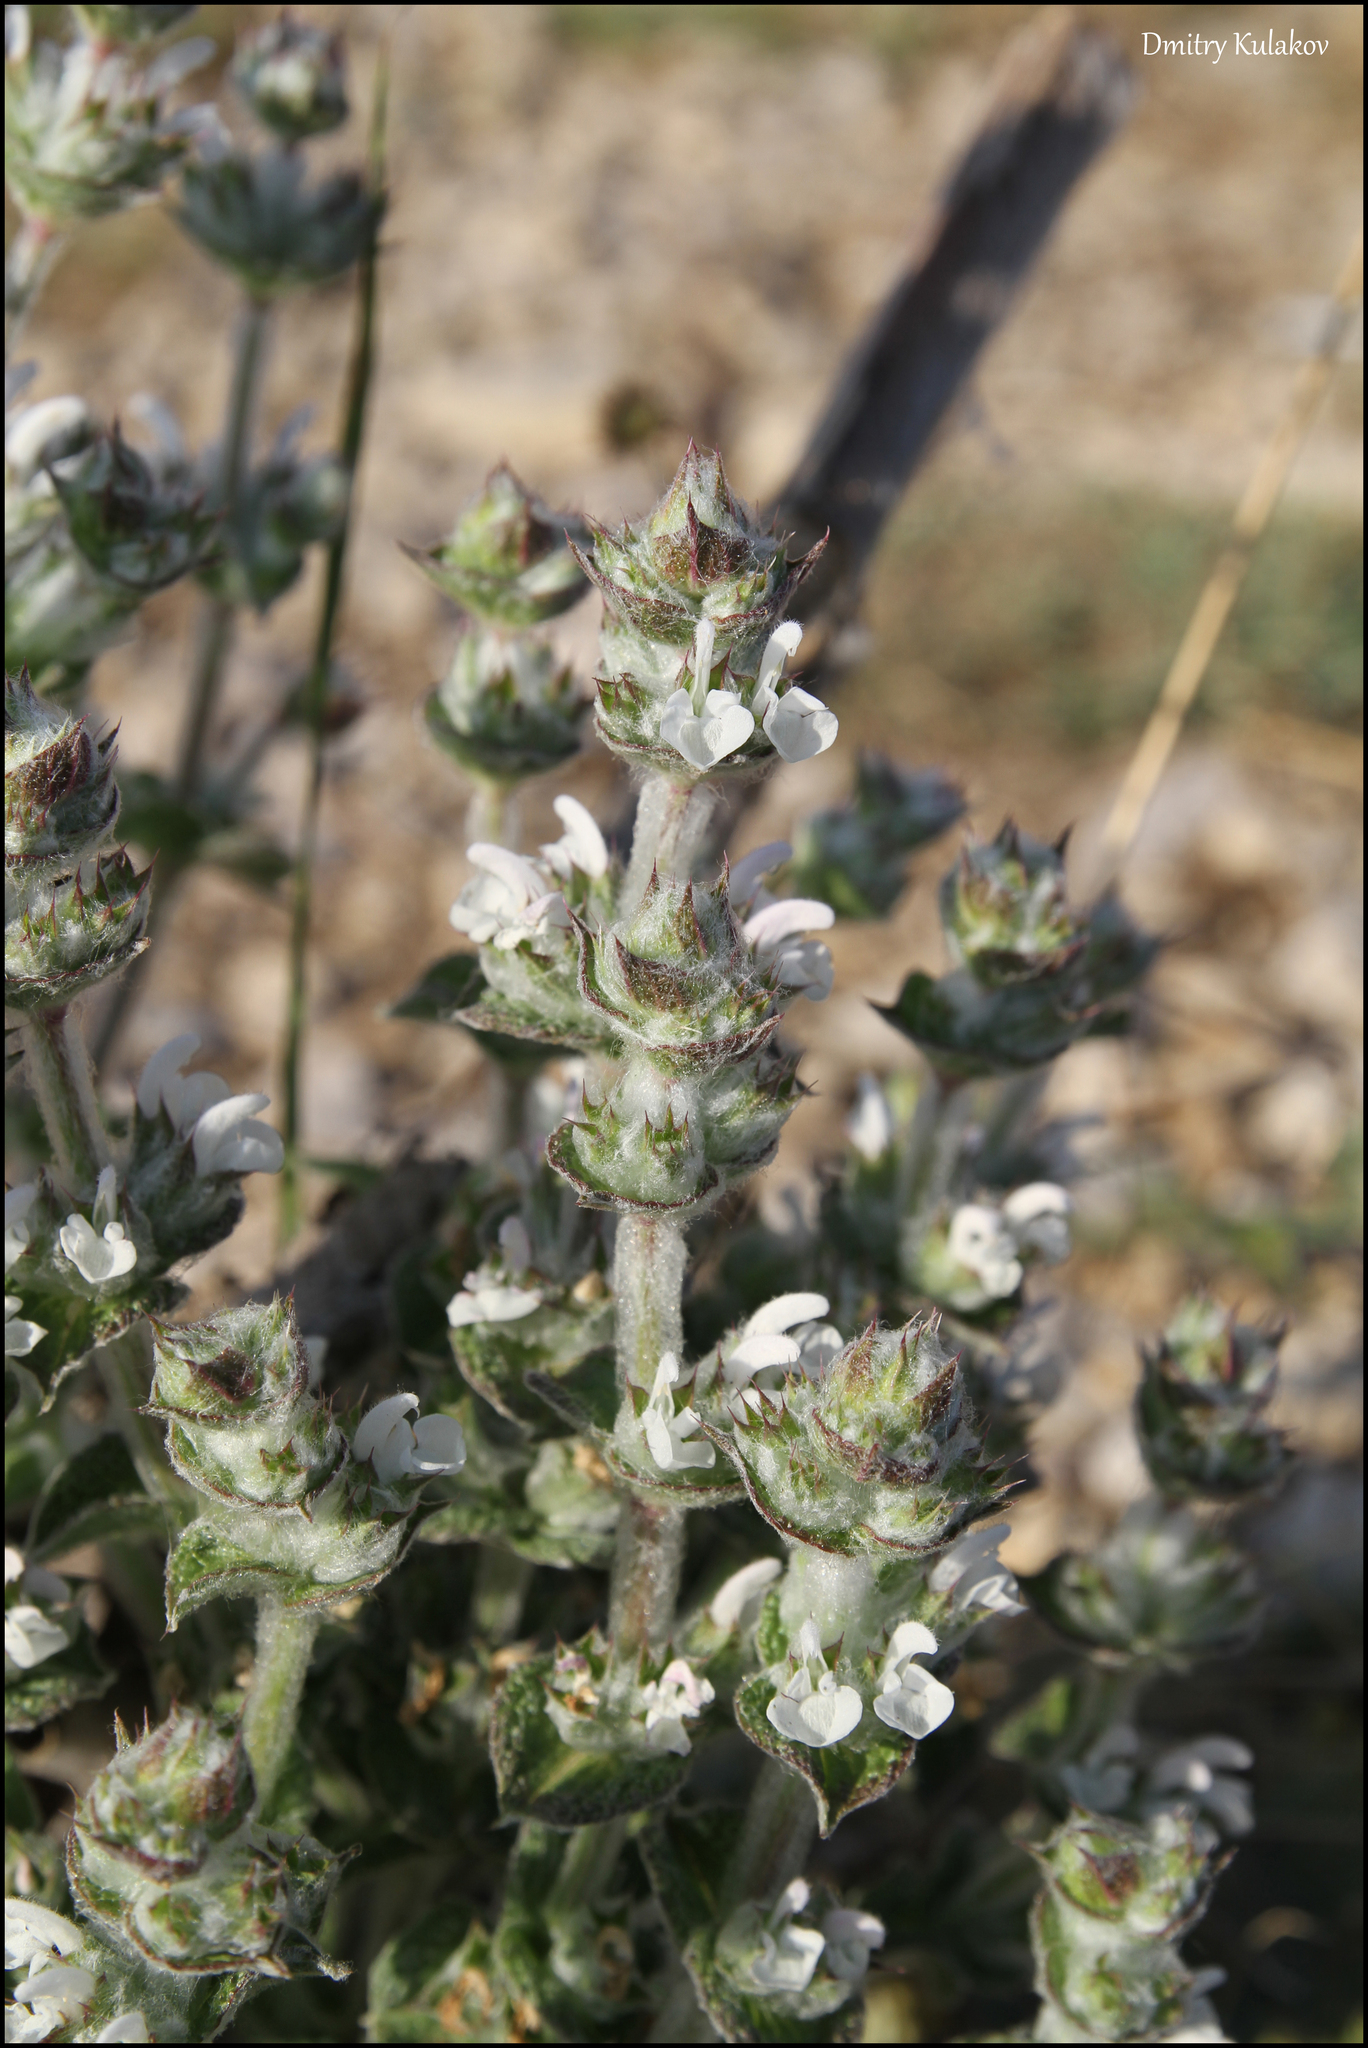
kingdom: Plantae
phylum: Tracheophyta
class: Magnoliopsida
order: Lamiales
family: Lamiaceae
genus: Salvia
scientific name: Salvia aethiopis
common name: Mediterranean sage
